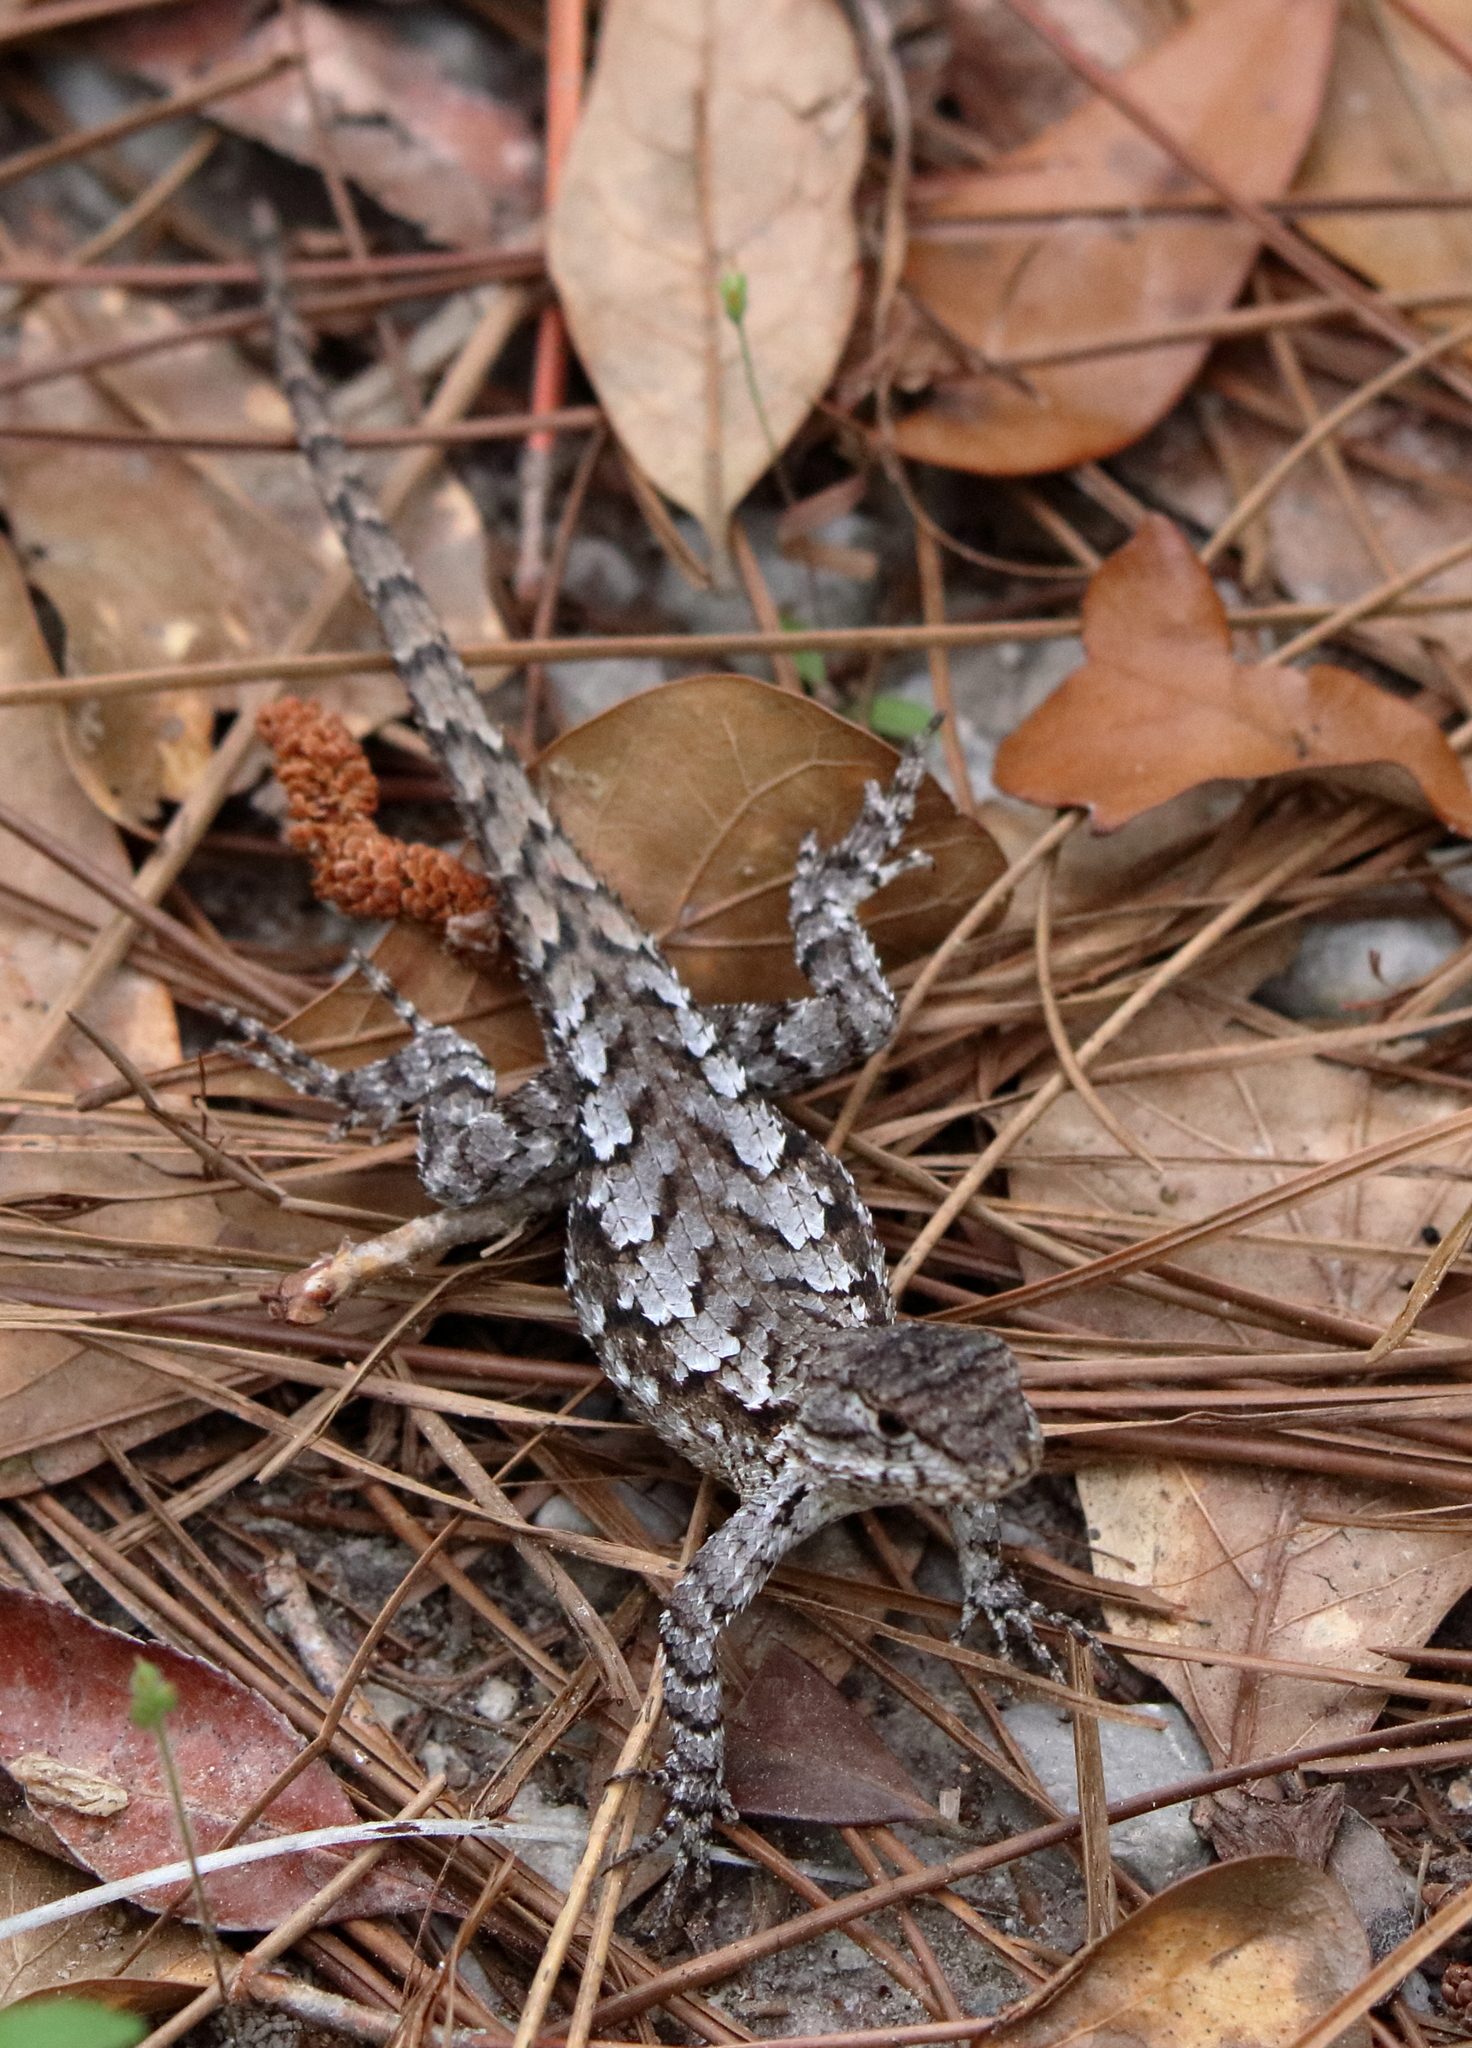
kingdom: Animalia
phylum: Chordata
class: Squamata
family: Phrynosomatidae
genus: Sceloporus
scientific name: Sceloporus undulatus
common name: Eastern fence lizard
